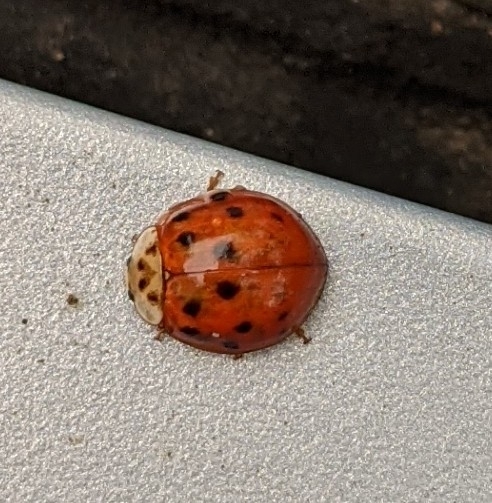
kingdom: Animalia
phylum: Arthropoda
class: Insecta
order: Coleoptera
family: Coccinellidae
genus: Harmonia
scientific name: Harmonia axyridis
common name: Harlequin ladybird
